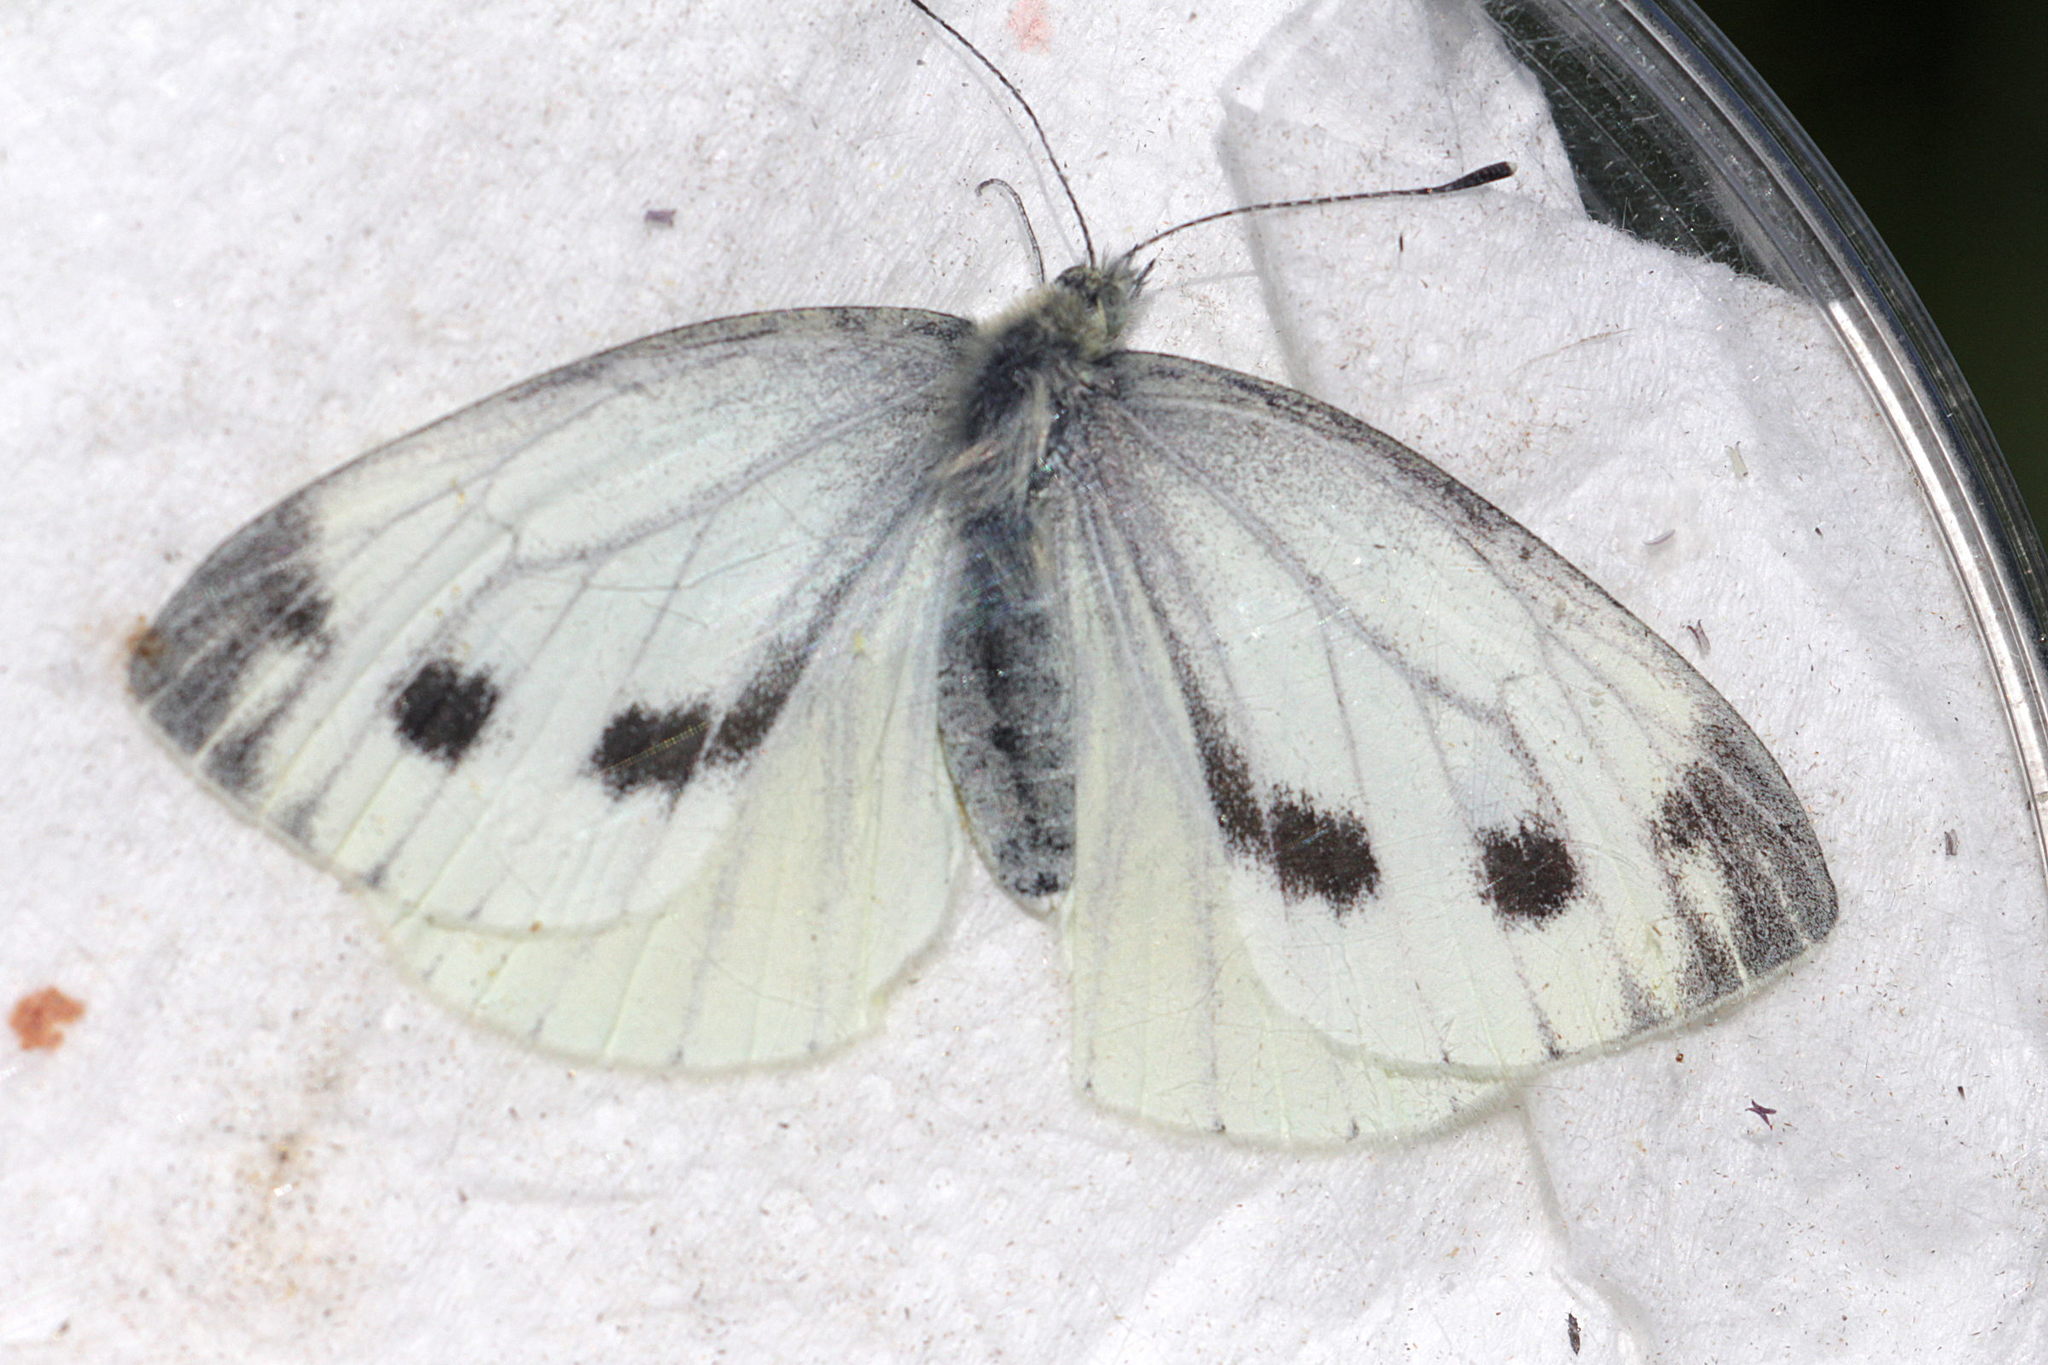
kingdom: Animalia
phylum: Arthropoda
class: Insecta
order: Lepidoptera
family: Pieridae
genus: Pieris
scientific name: Pieris napi
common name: Green-veined white
